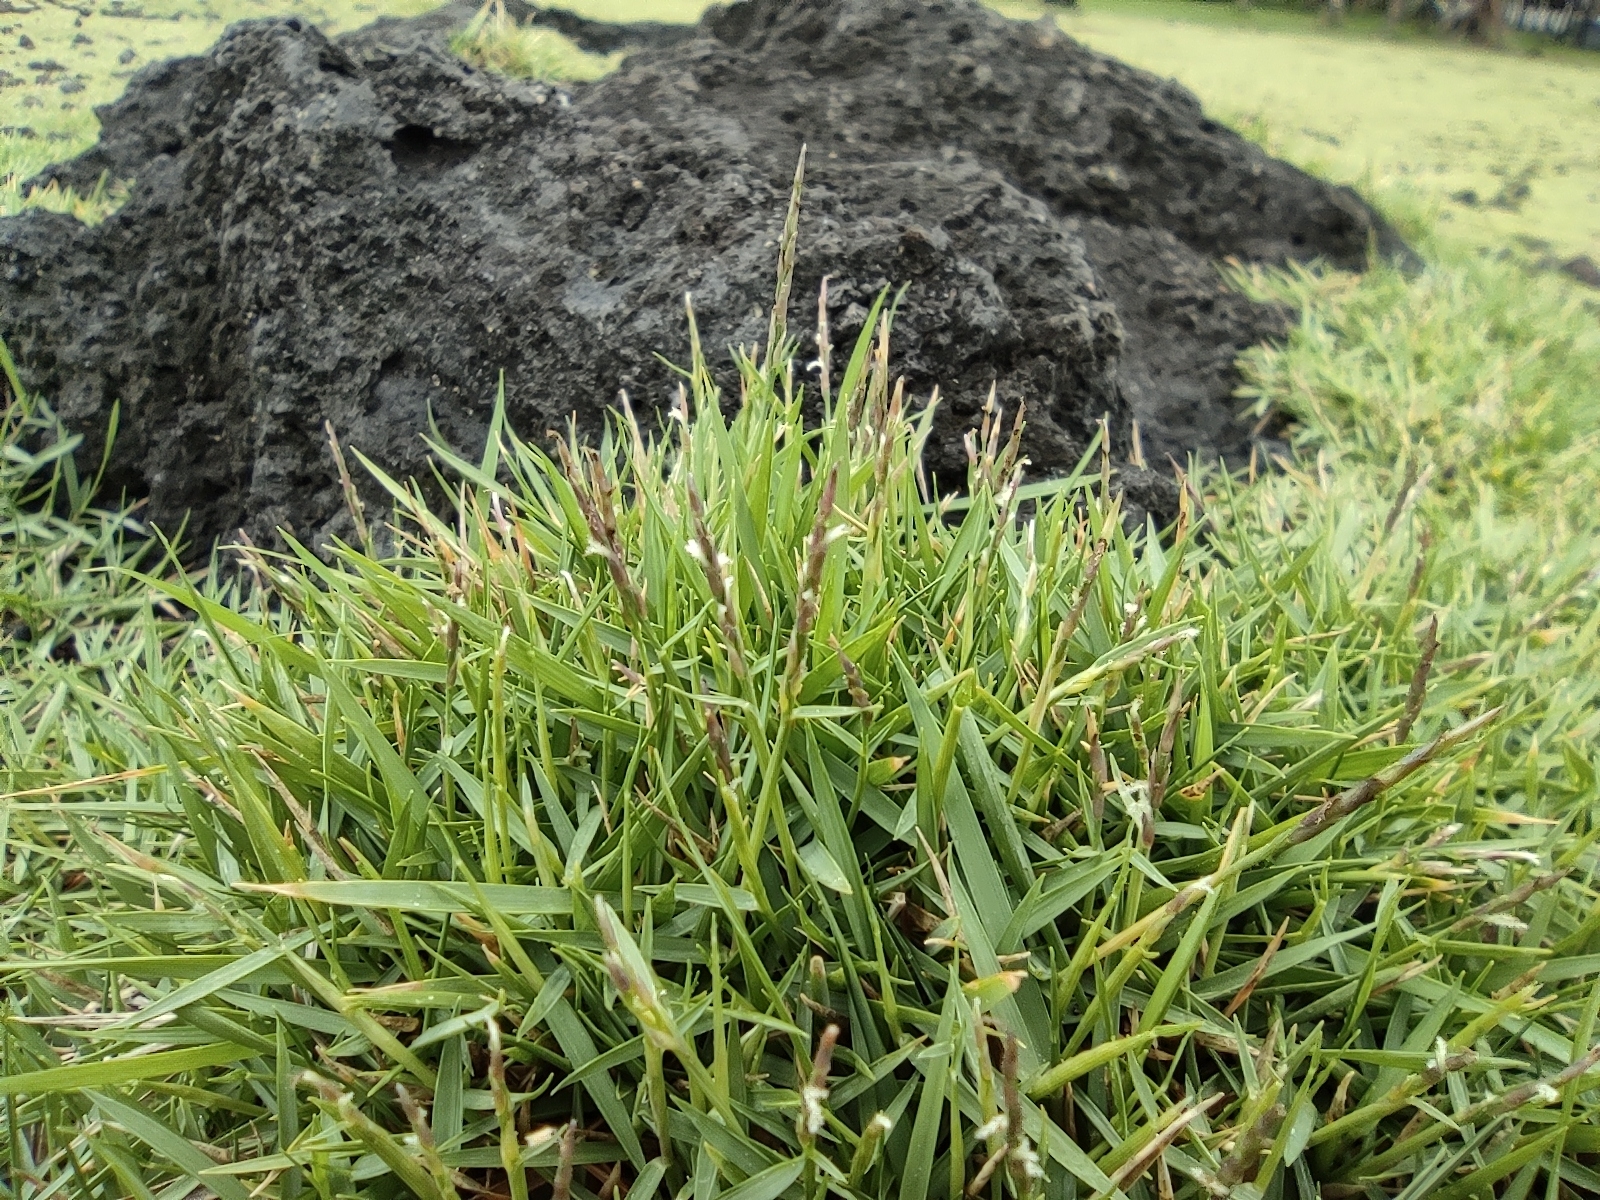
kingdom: Plantae
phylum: Tracheophyta
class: Liliopsida
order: Poales
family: Poaceae
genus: Zoysia
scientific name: Zoysia matrella
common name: Manila grass
